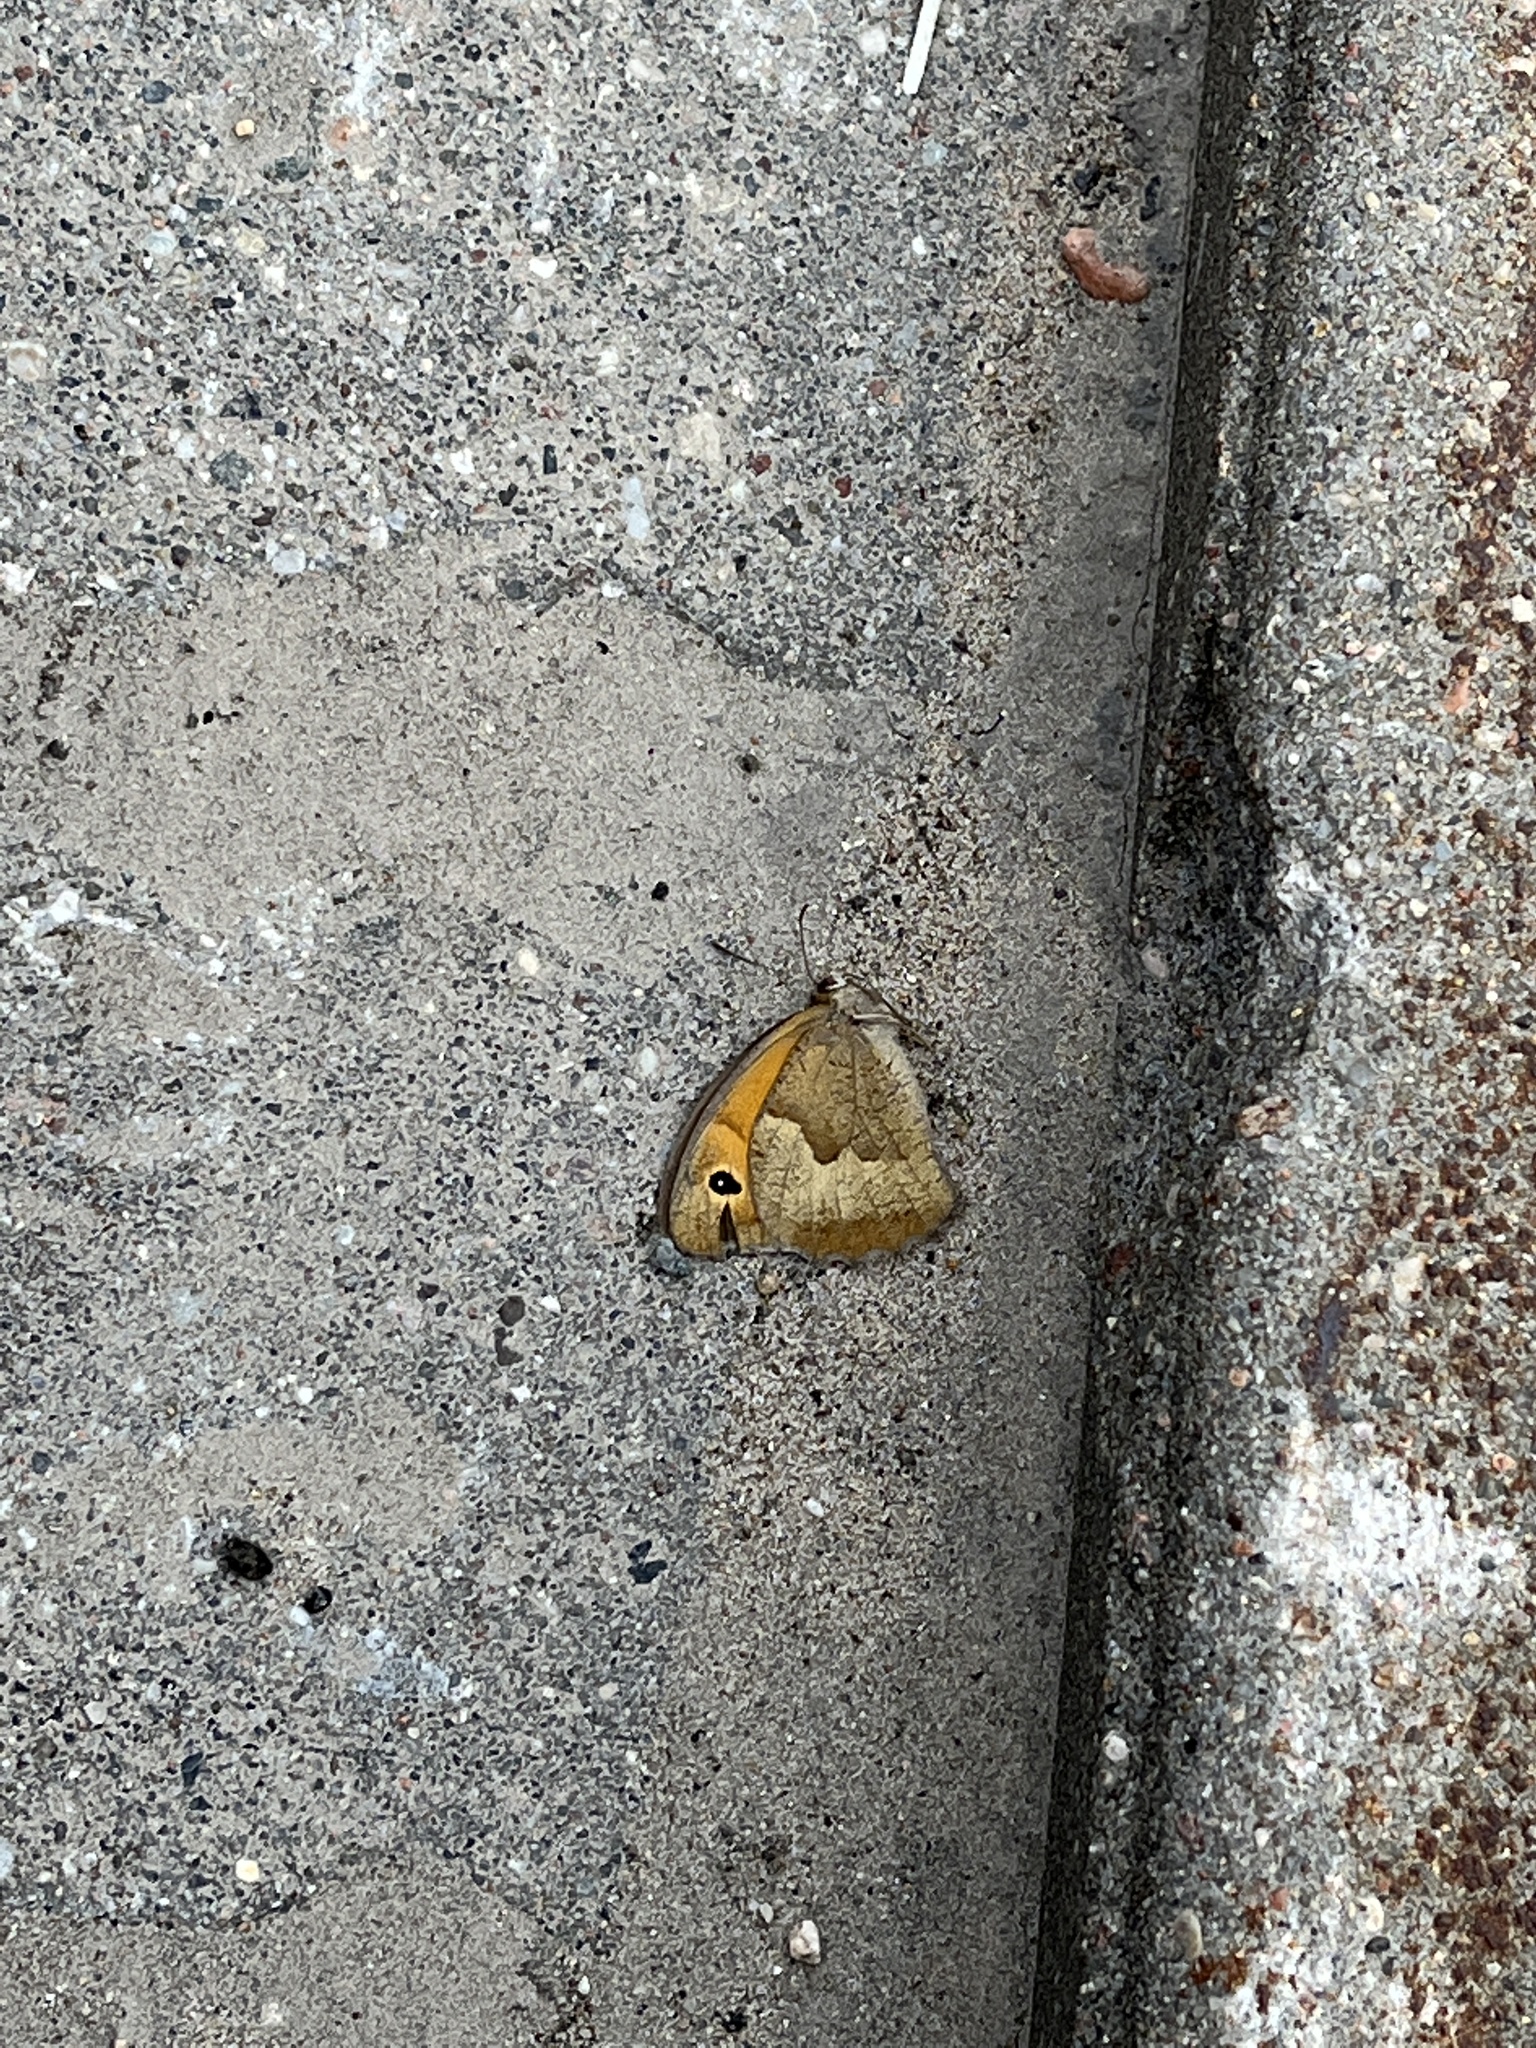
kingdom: Animalia
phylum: Arthropoda
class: Insecta
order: Lepidoptera
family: Nymphalidae
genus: Maniola
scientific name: Maniola jurtina
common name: Meadow brown
